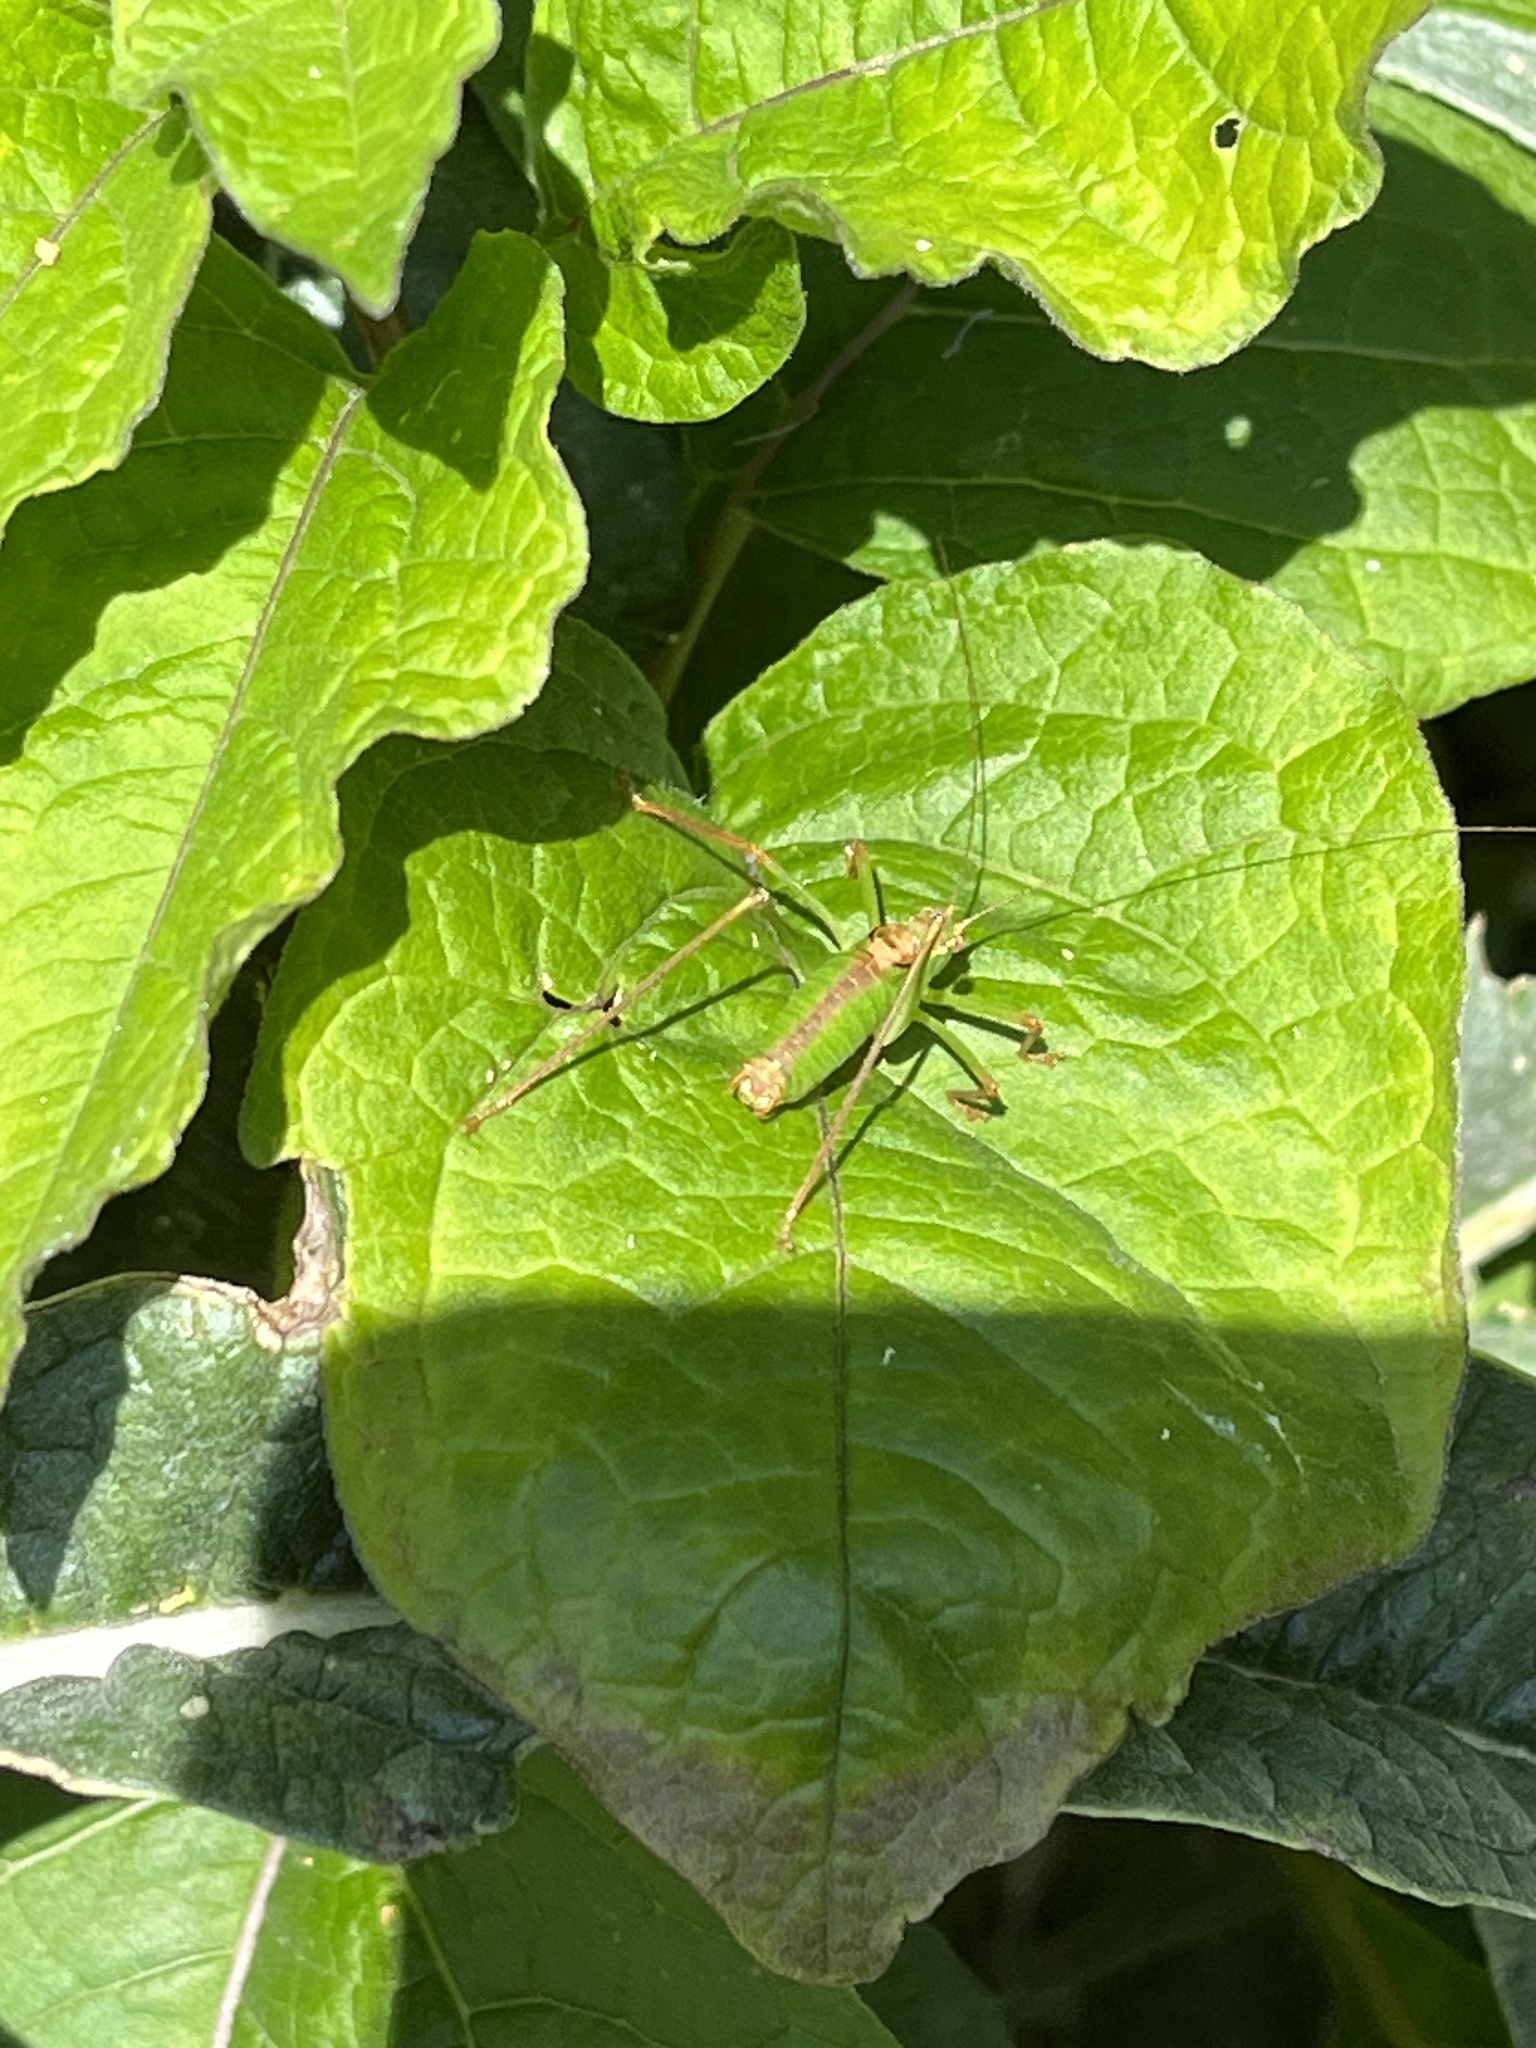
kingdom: Animalia
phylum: Arthropoda
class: Insecta
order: Orthoptera
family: Tettigoniidae
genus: Leptophyes
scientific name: Leptophyes punctatissima
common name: Speckled bush-cricket
